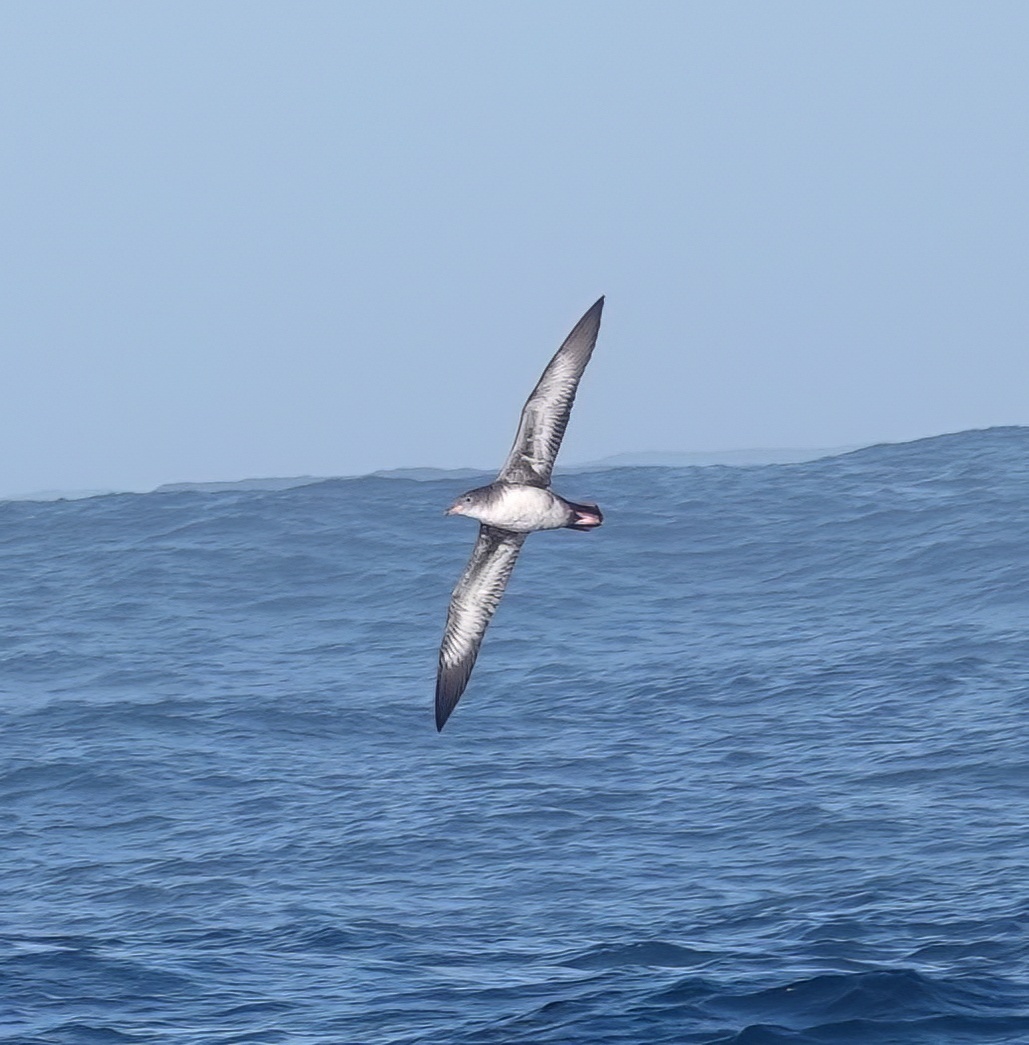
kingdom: Animalia
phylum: Chordata
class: Aves
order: Procellariiformes
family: Procellariidae
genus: Puffinus
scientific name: Puffinus creatopus
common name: Pink-footed shearwater
